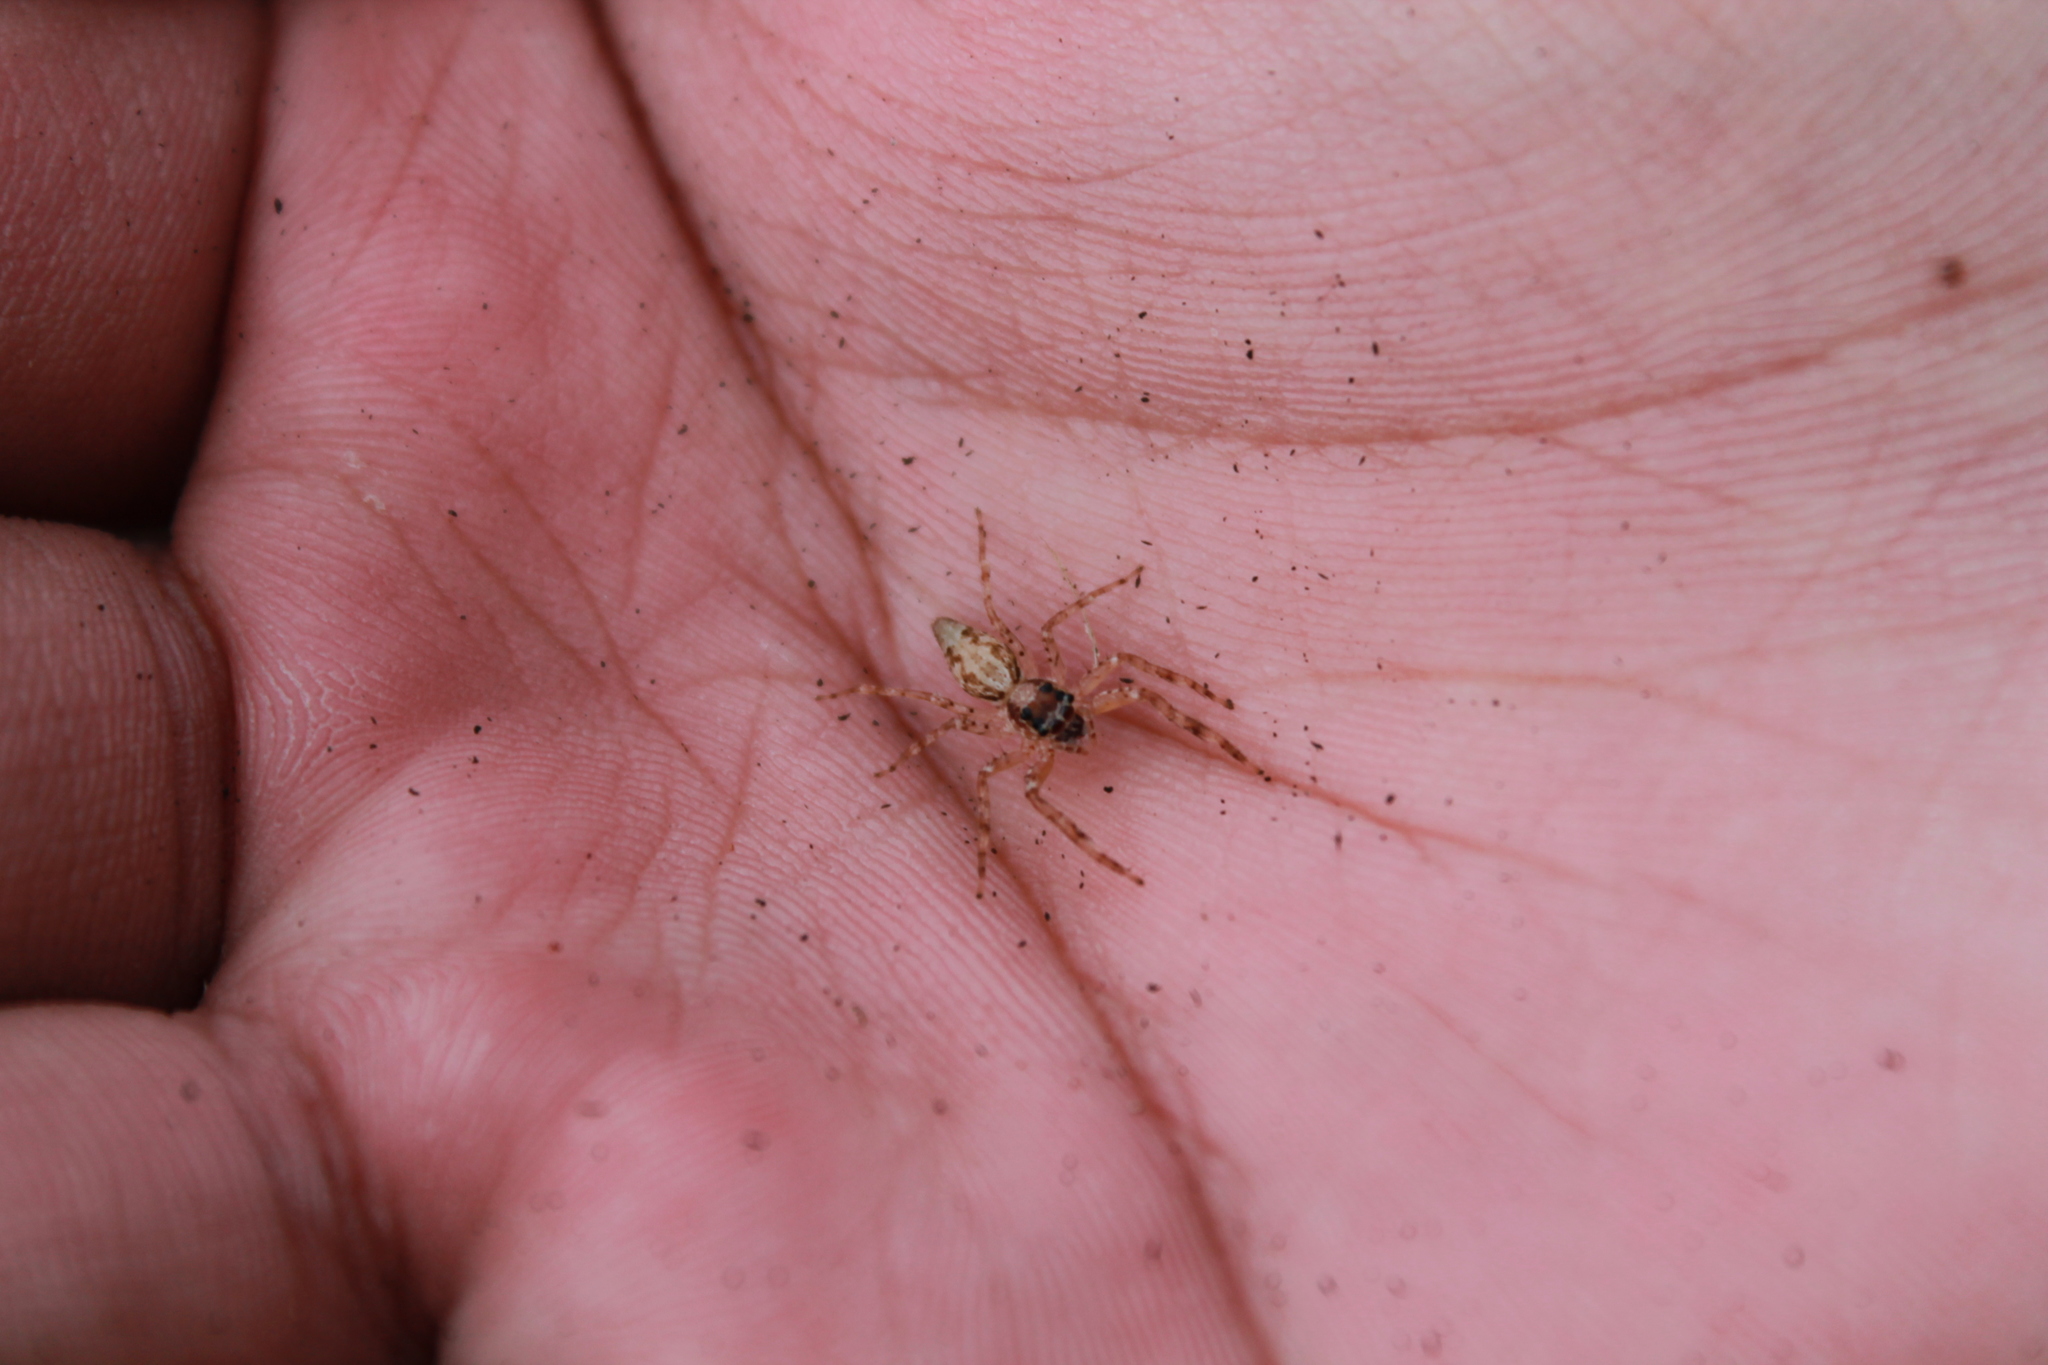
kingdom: Animalia
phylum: Arthropoda
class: Arachnida
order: Araneae
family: Salticidae
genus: Helpis
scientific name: Helpis minitabunda
